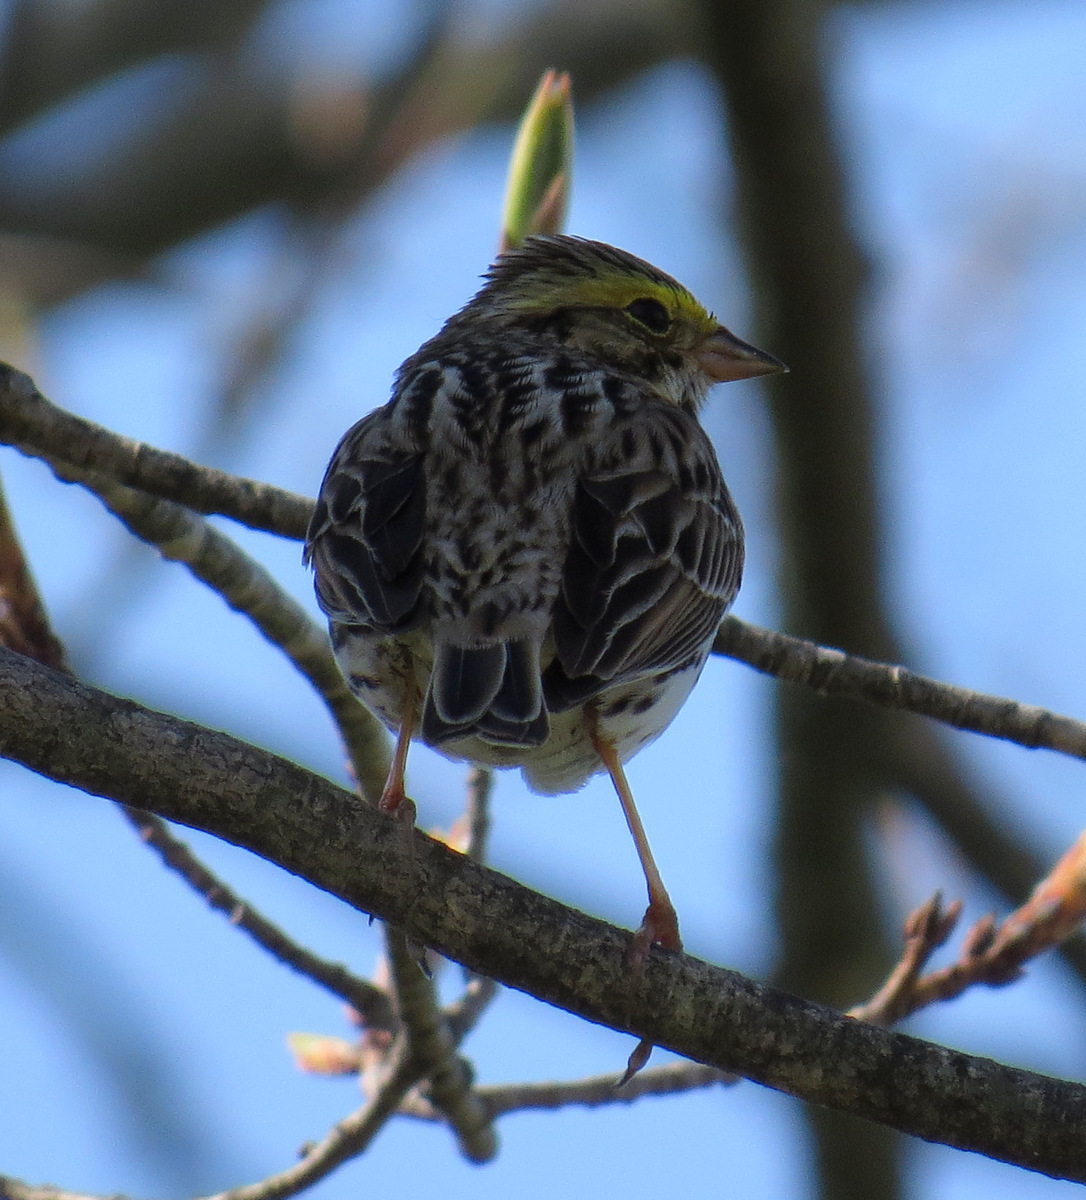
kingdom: Animalia
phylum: Chordata
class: Aves
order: Passeriformes
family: Passerellidae
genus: Passerculus
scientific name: Passerculus sandwichensis
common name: Savannah sparrow
